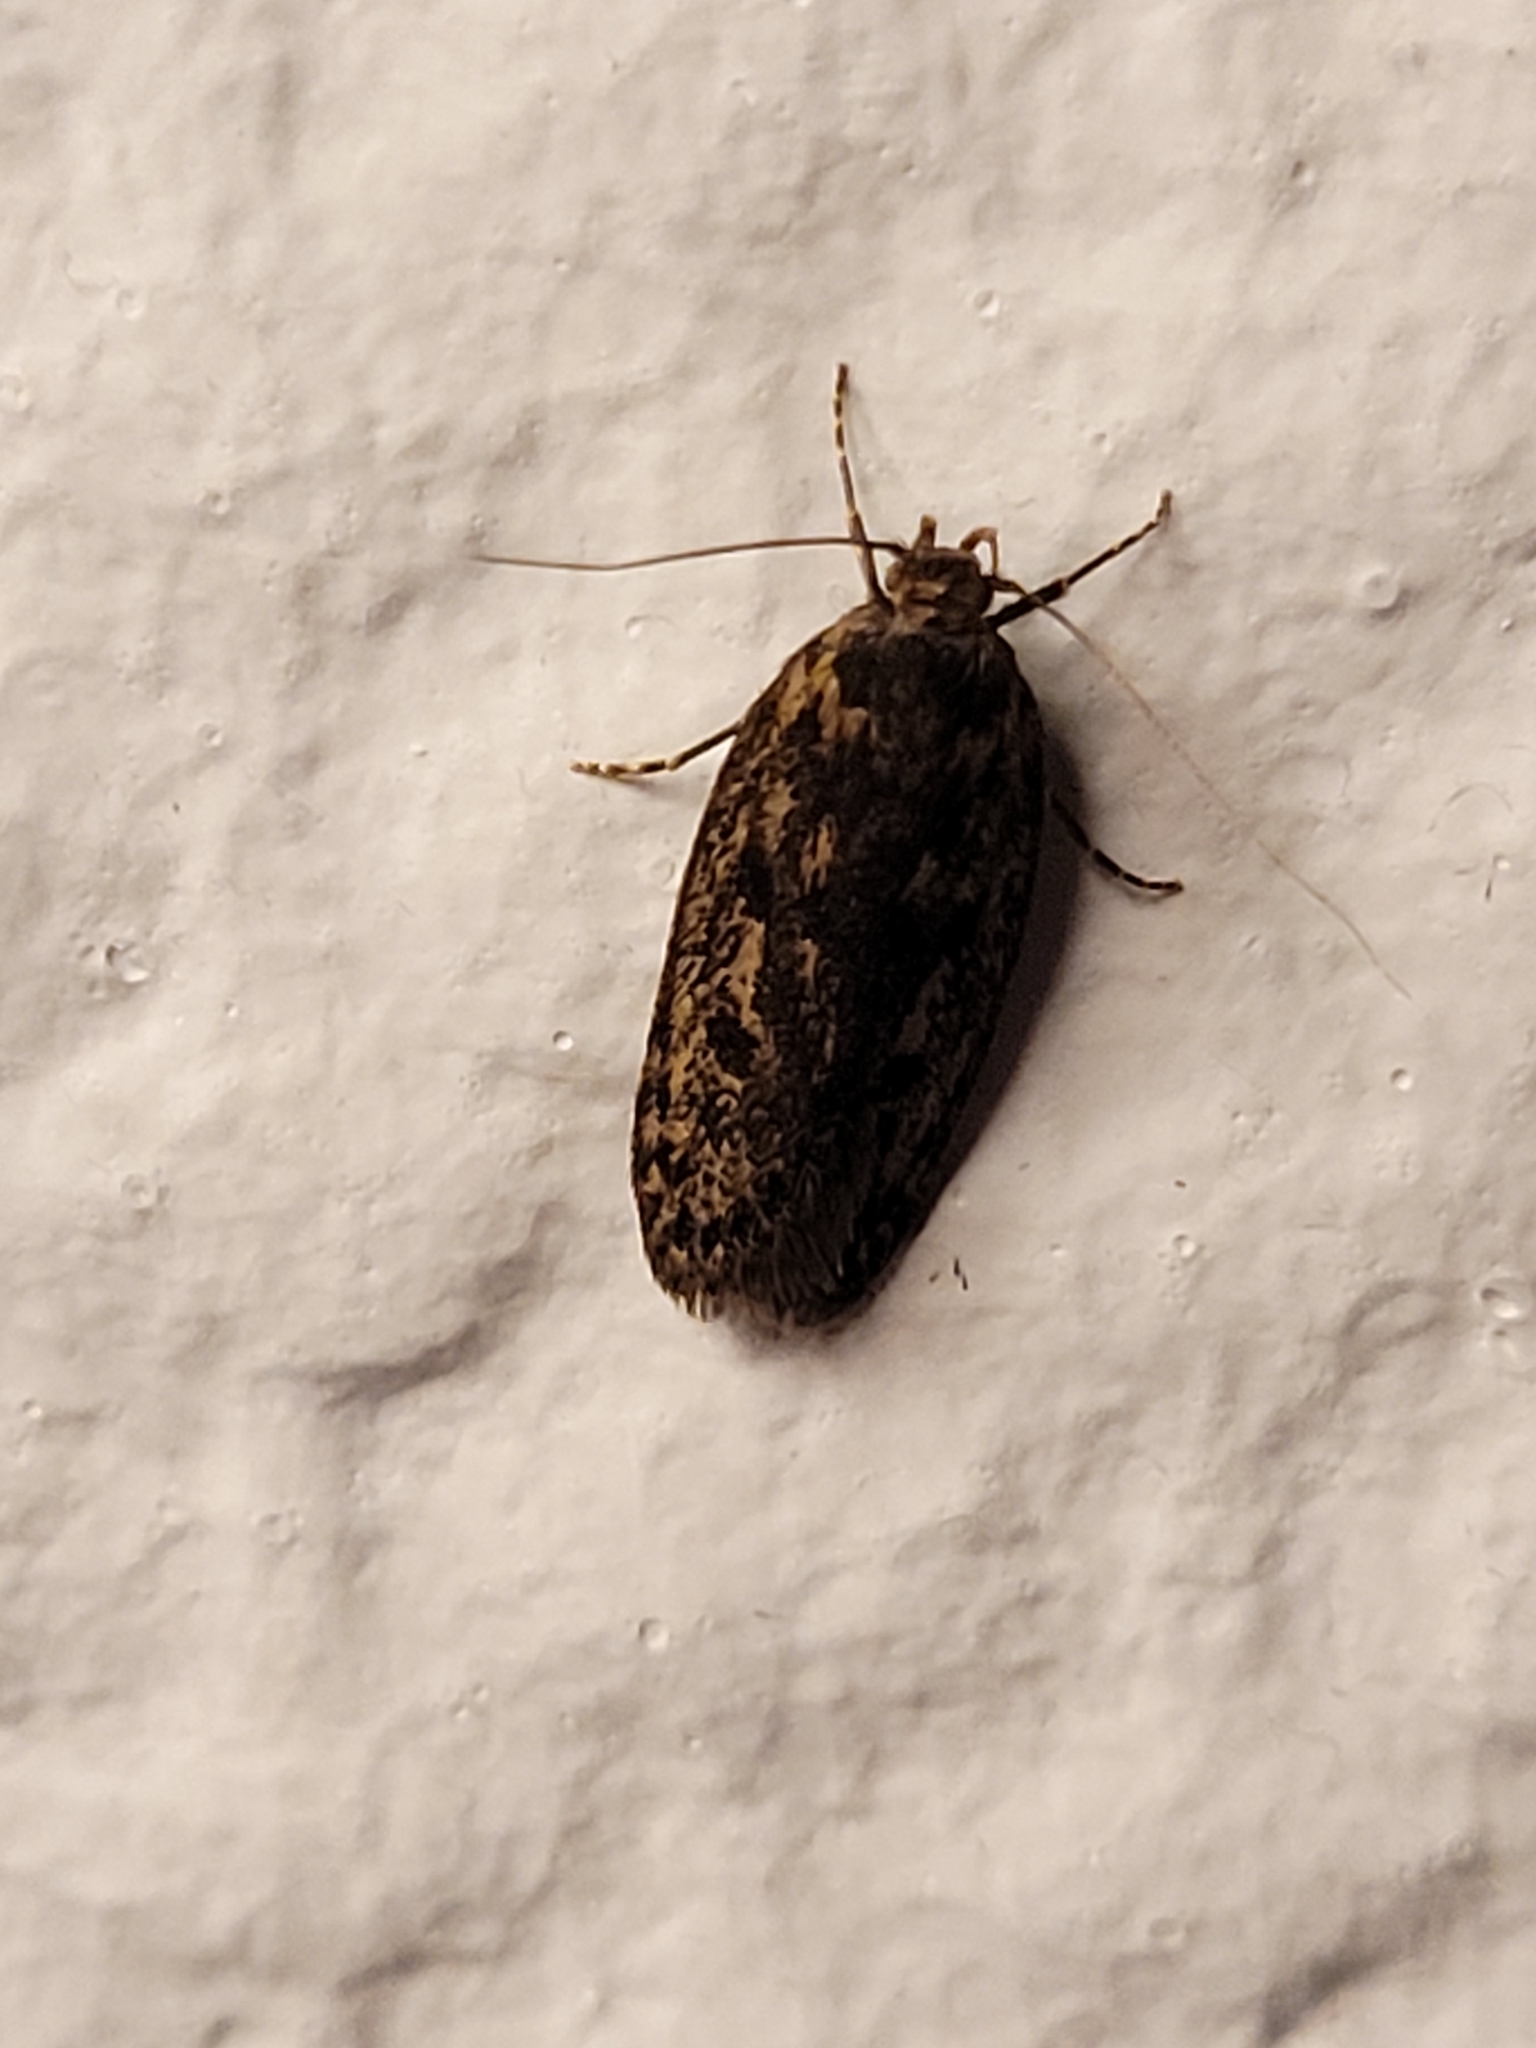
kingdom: Animalia
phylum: Arthropoda
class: Insecta
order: Lepidoptera
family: Oecophoridae
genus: Hofmannophila
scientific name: Hofmannophila pseudospretella
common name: Brown house moth
